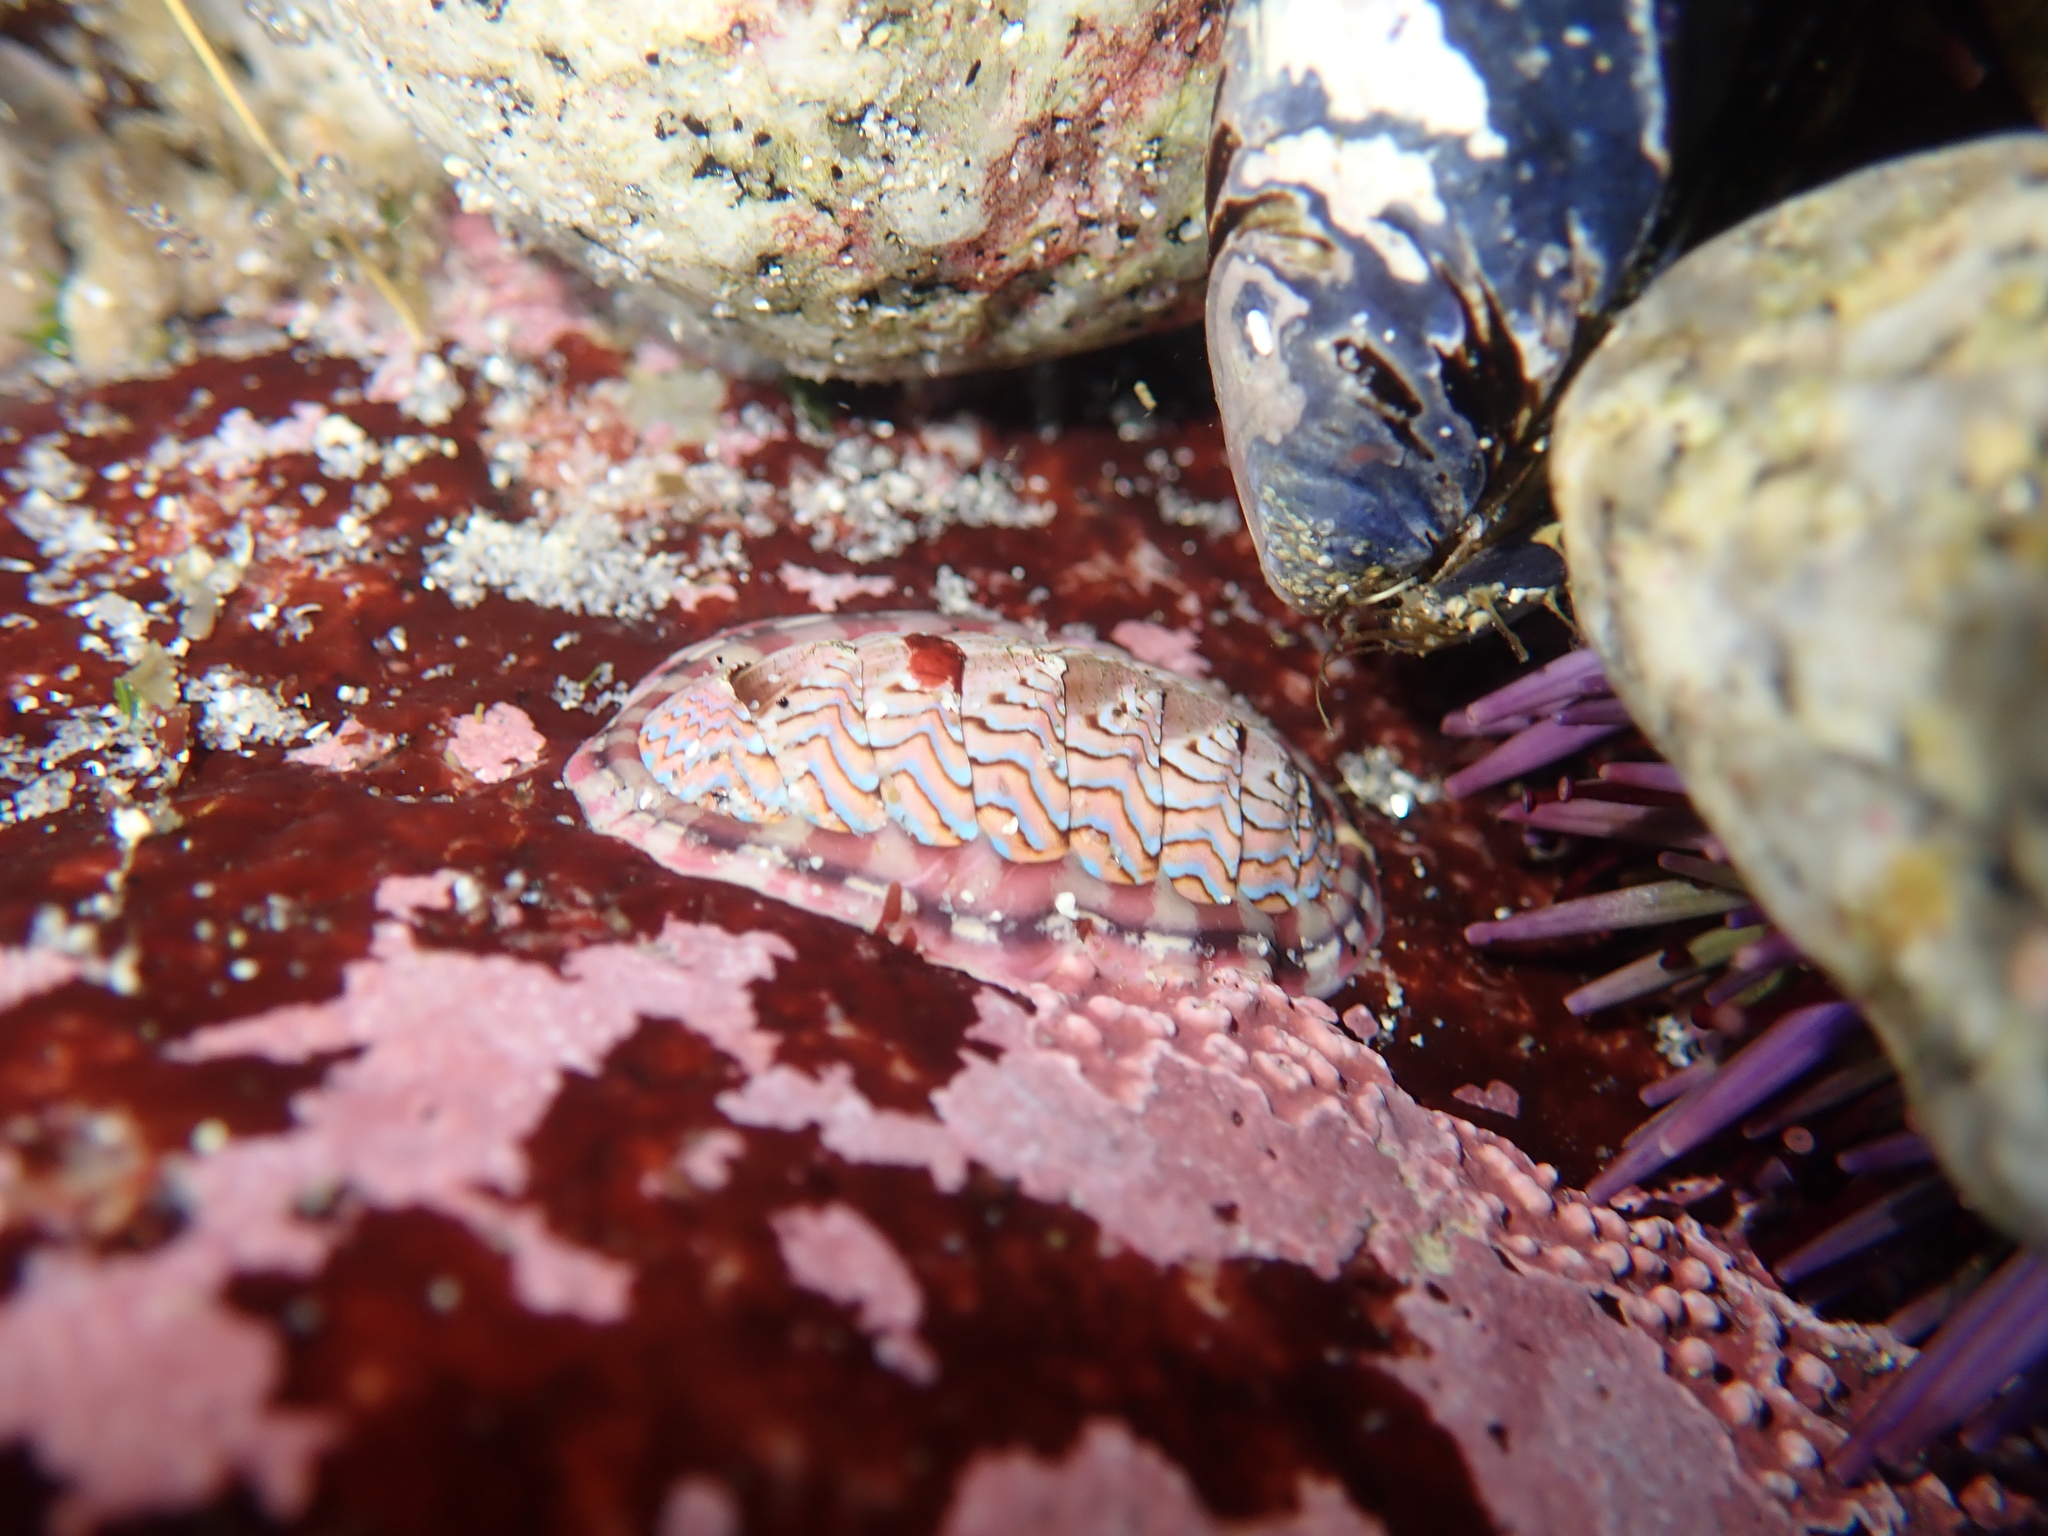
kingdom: Animalia
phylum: Mollusca
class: Polyplacophora
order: Chitonida
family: Tonicellidae
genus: Tonicella
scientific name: Tonicella lokii
